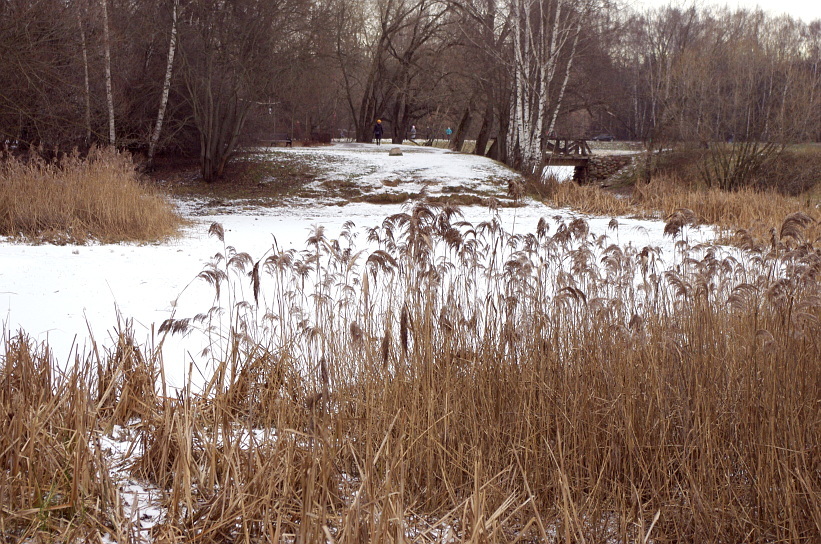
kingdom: Plantae
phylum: Tracheophyta
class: Liliopsida
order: Poales
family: Poaceae
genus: Phragmites
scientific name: Phragmites australis
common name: Common reed
